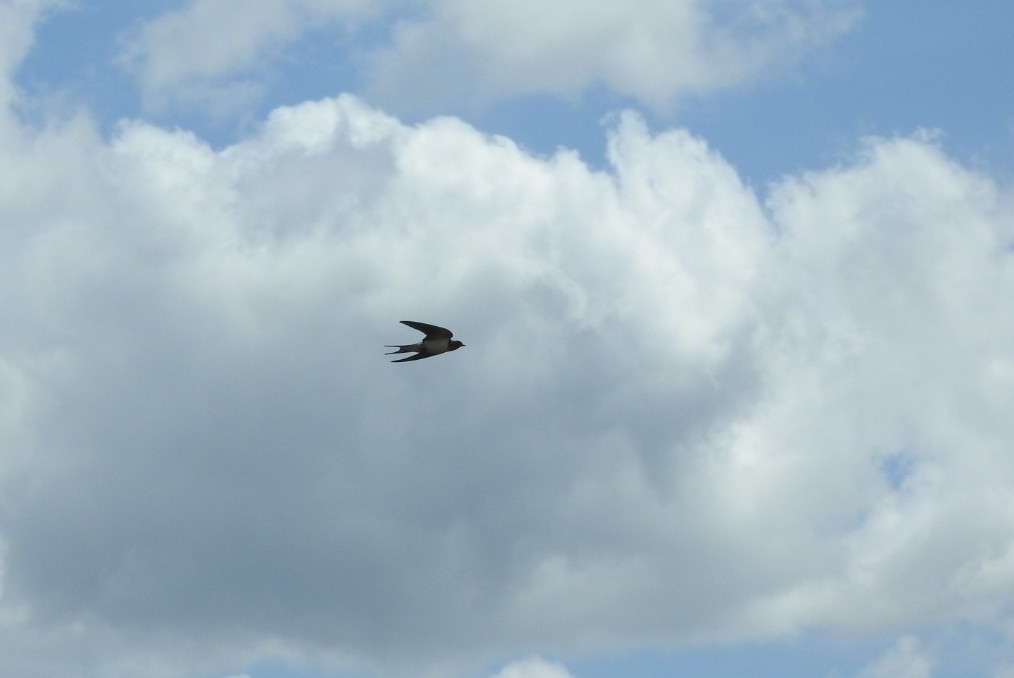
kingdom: Animalia
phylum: Chordata
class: Aves
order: Passeriformes
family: Hirundinidae
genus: Hirundo
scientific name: Hirundo rustica
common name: Barn swallow
